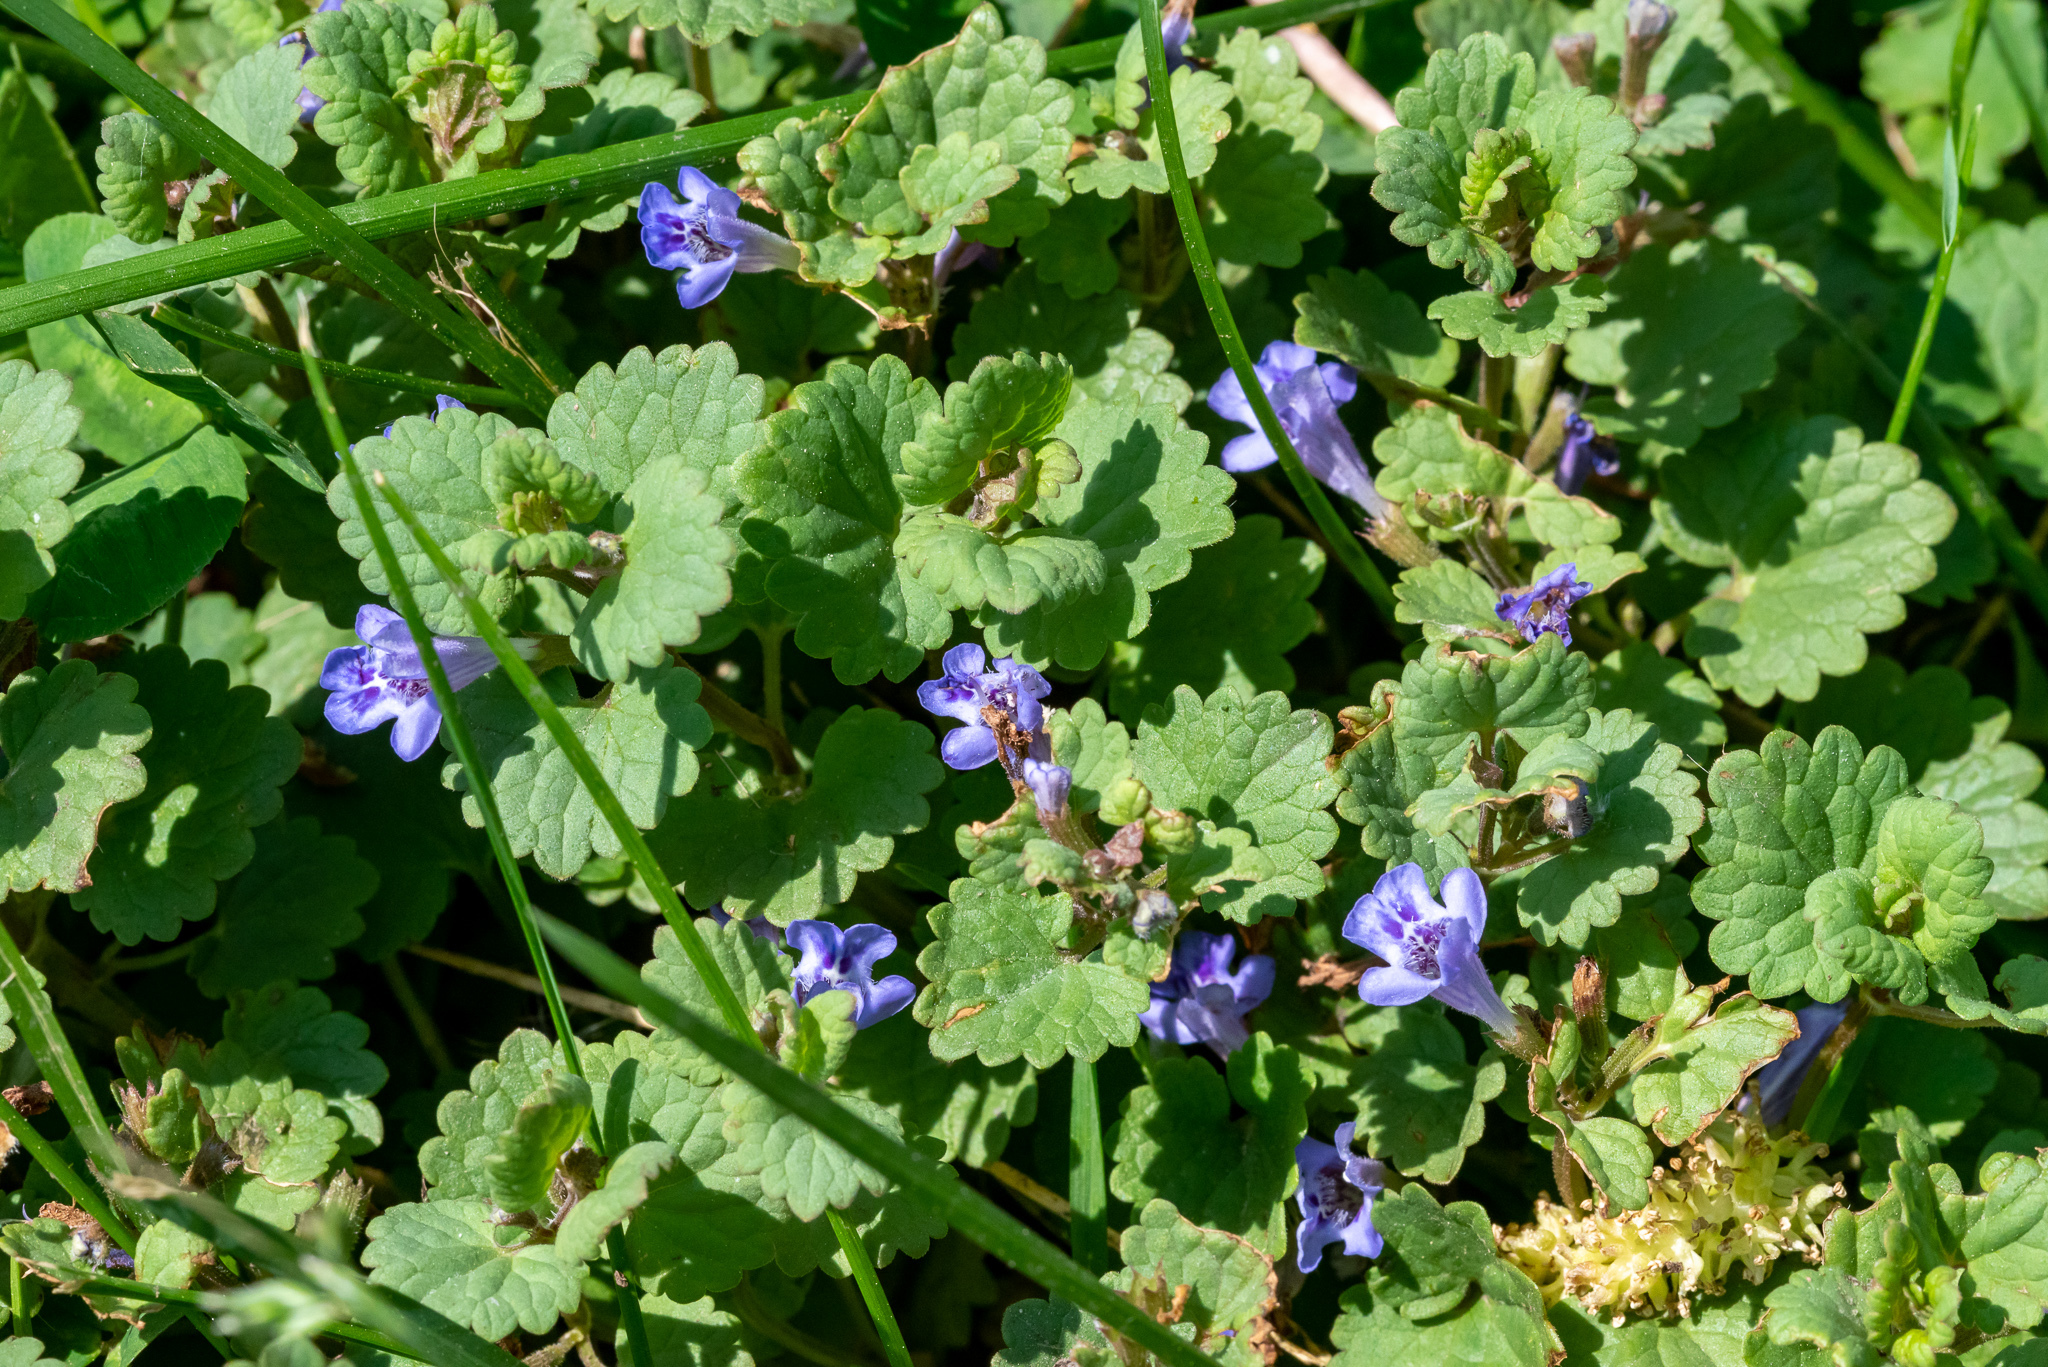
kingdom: Plantae
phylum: Tracheophyta
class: Magnoliopsida
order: Lamiales
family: Lamiaceae
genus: Glechoma
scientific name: Glechoma hederacea
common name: Ground ivy
